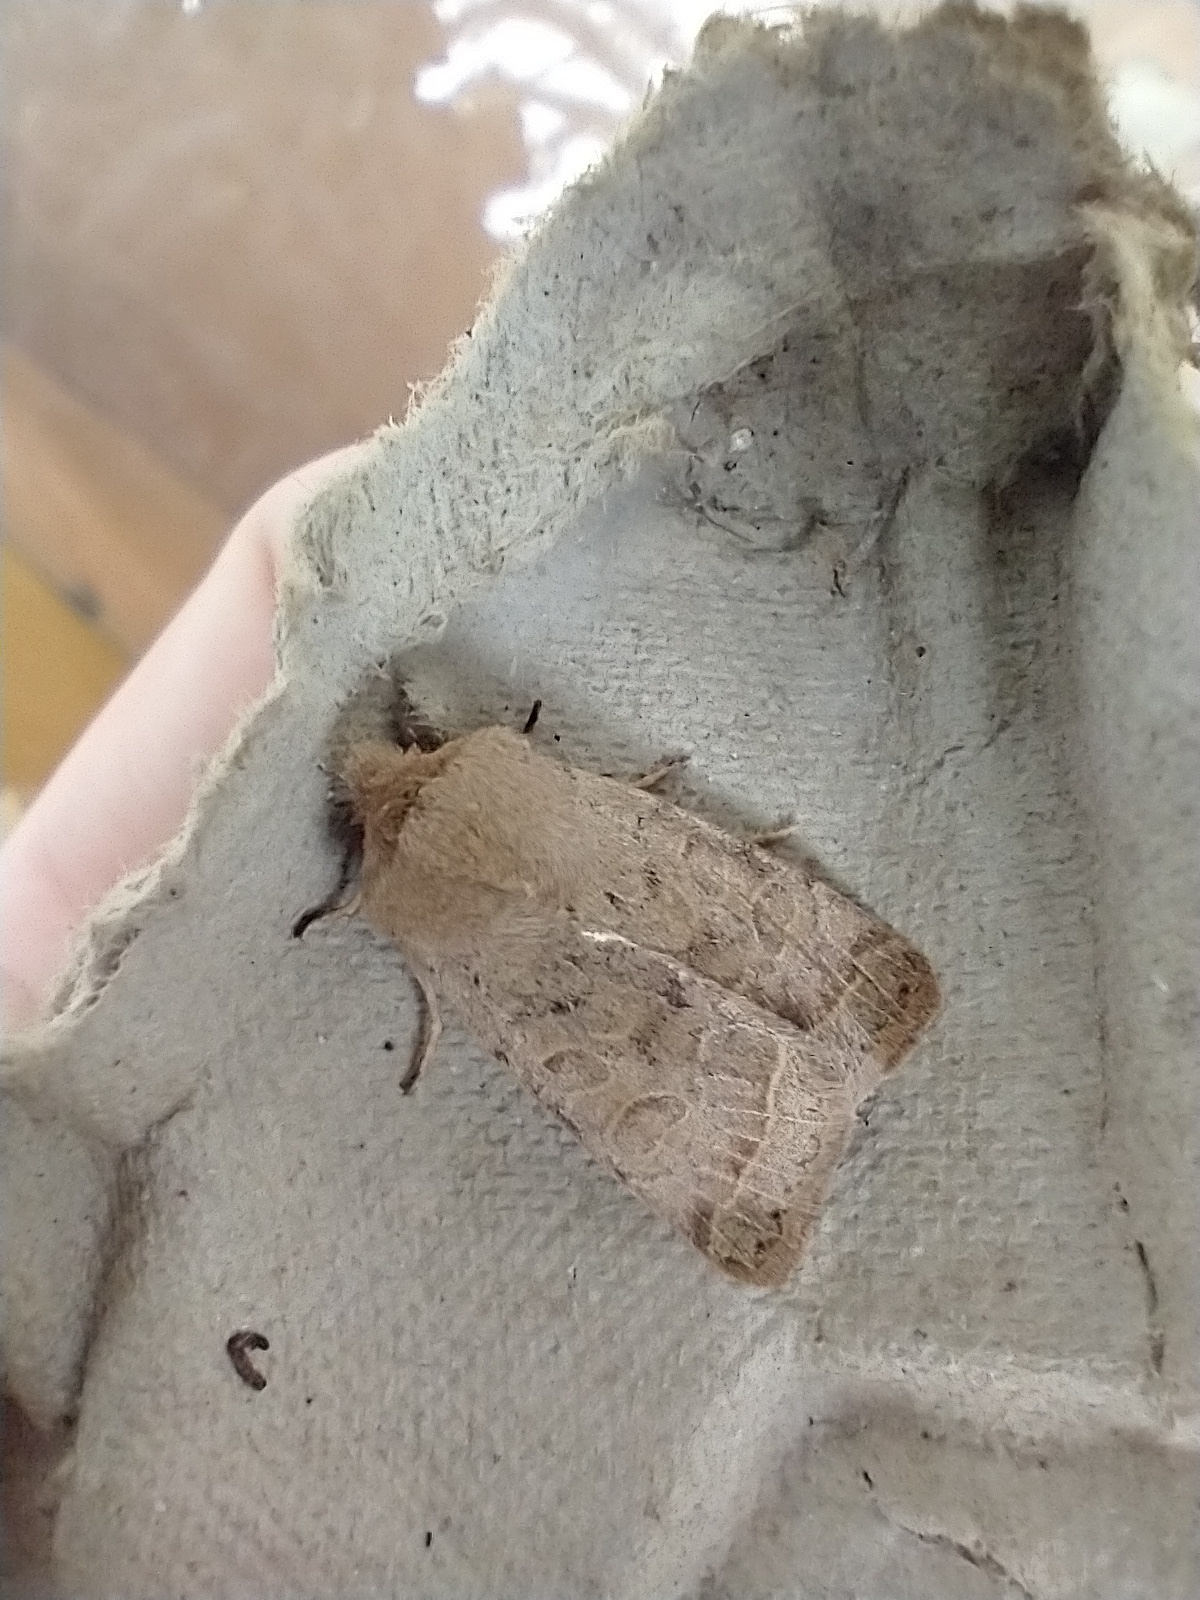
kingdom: Animalia
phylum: Arthropoda
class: Insecta
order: Lepidoptera
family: Noctuidae
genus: Orthosia
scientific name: Orthosia cerasi
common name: Common quaker
